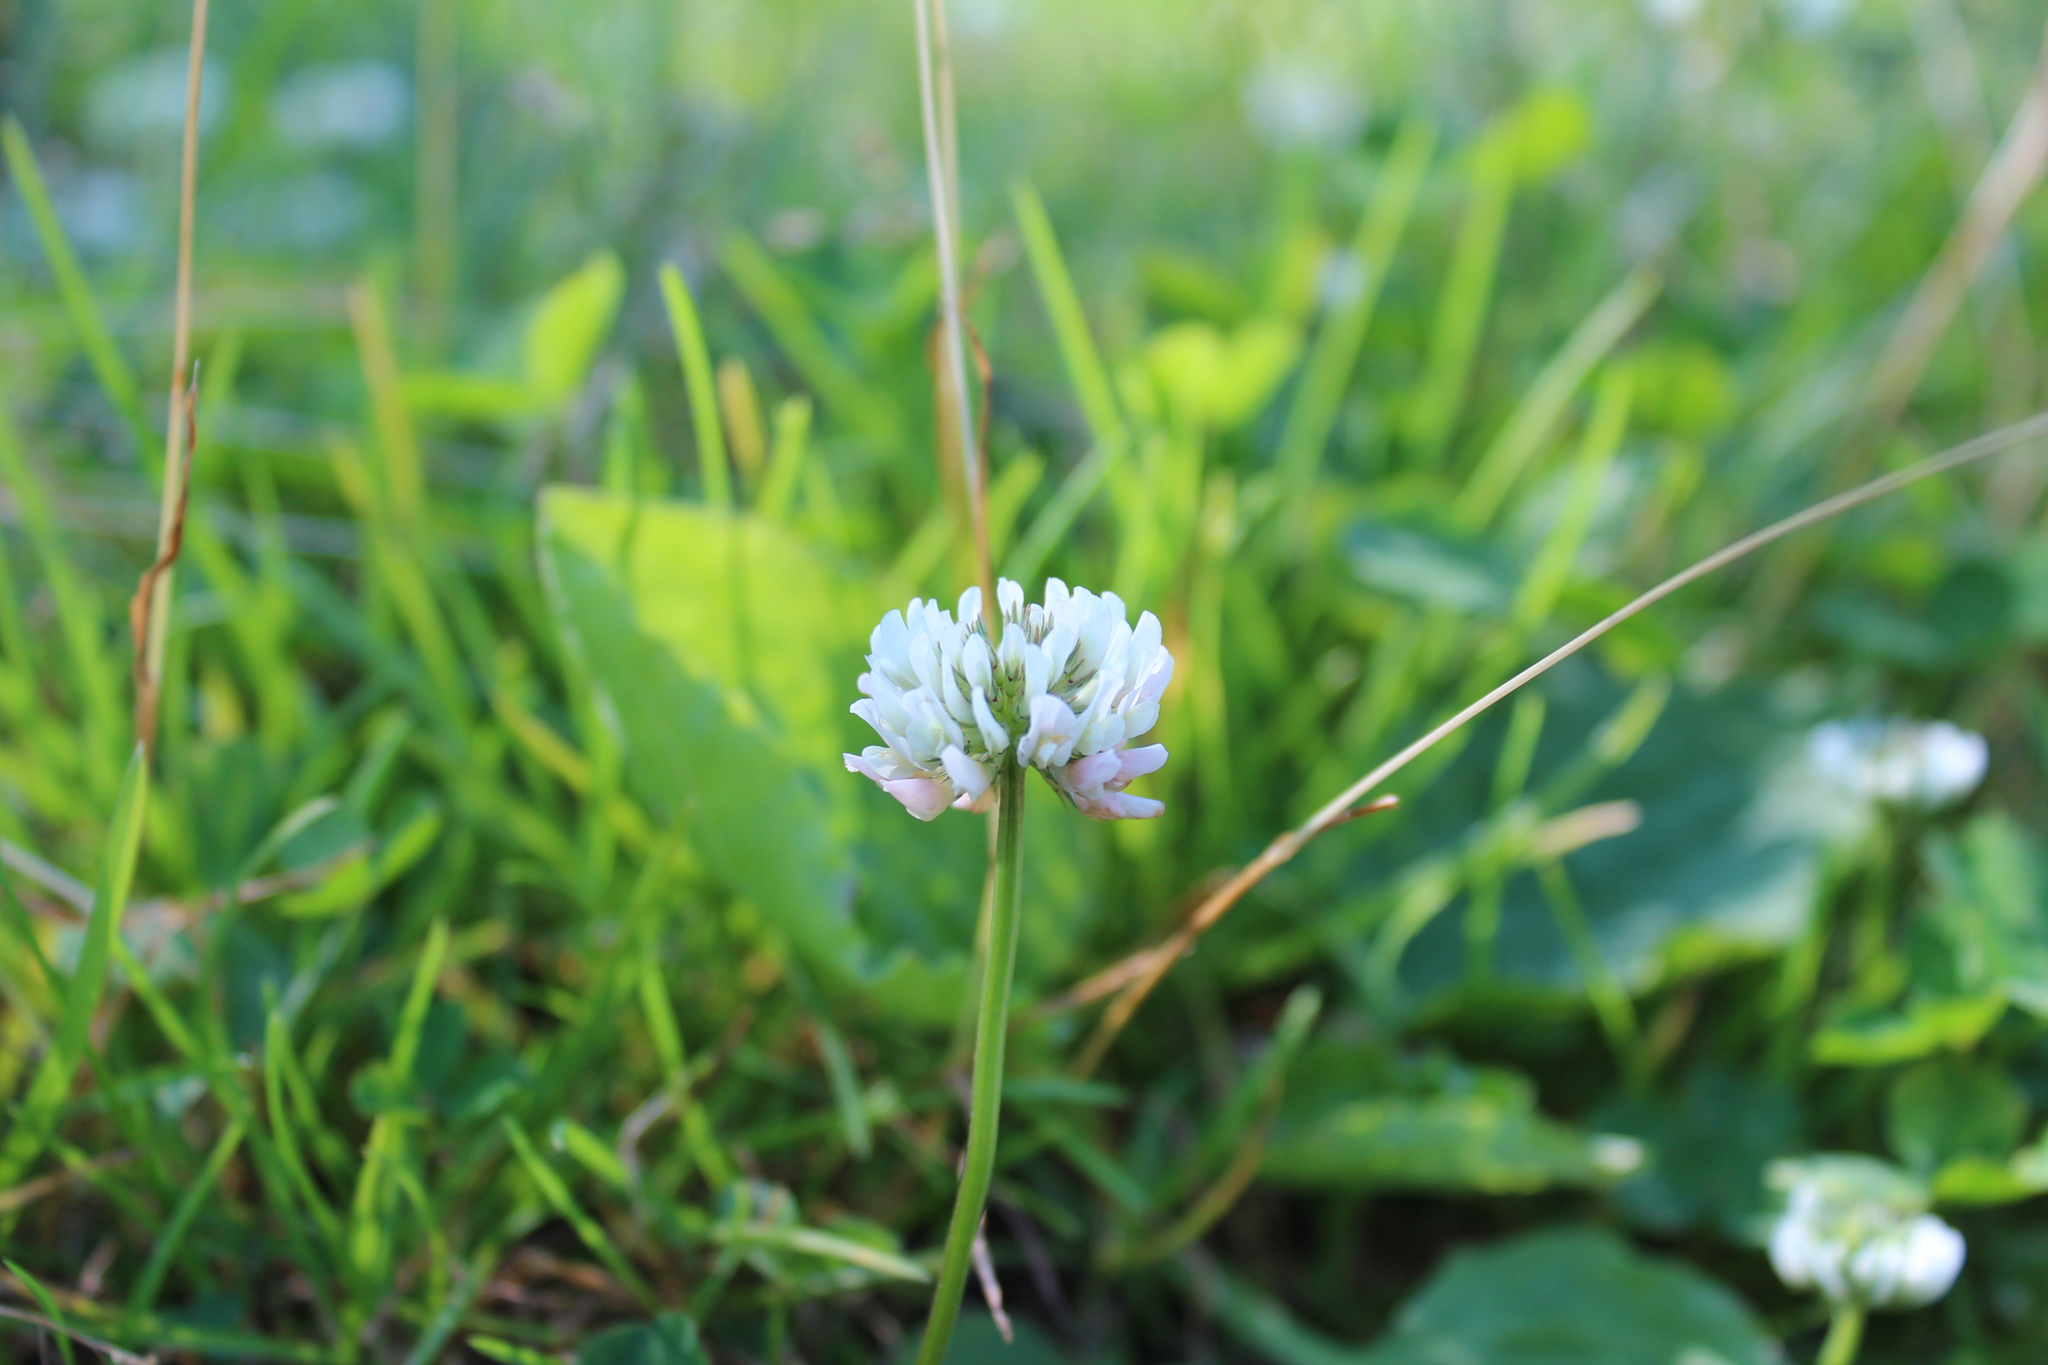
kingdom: Plantae
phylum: Tracheophyta
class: Magnoliopsida
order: Fabales
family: Fabaceae
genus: Trifolium
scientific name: Trifolium repens
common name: White clover
